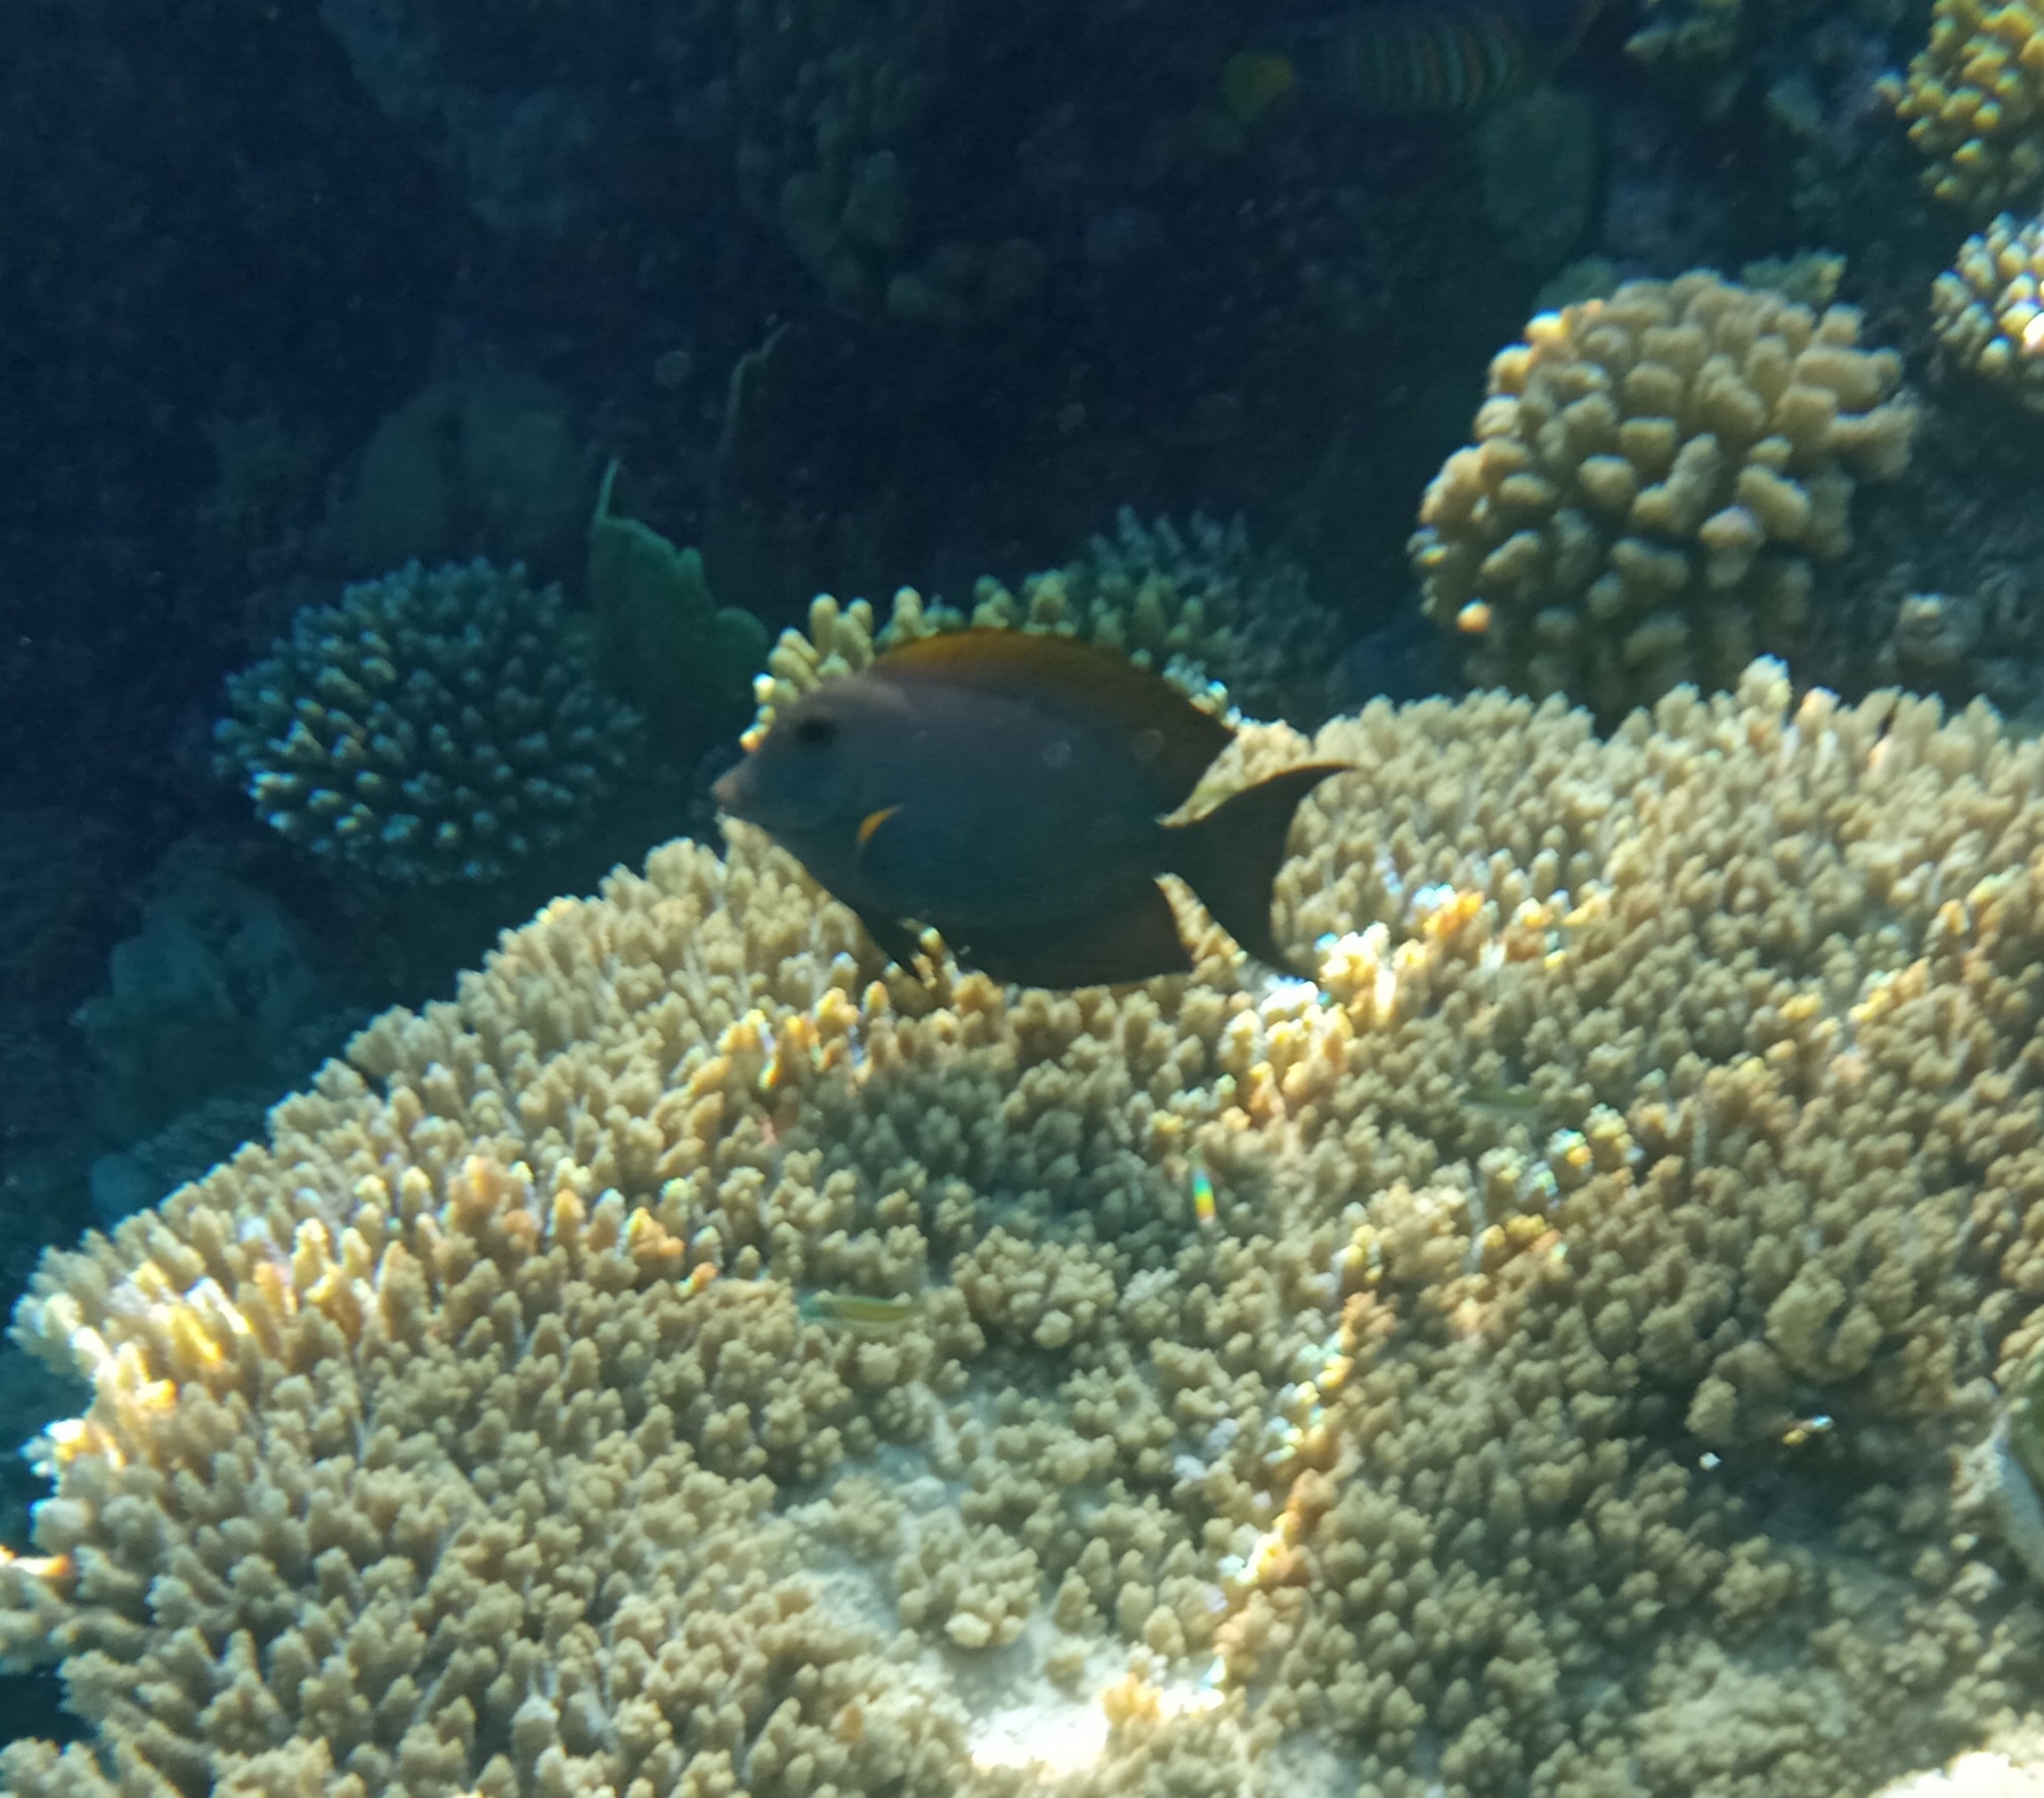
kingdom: Animalia
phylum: Chordata
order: Perciformes
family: Acanthuridae
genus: Ctenochaetus
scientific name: Ctenochaetus striatus
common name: Bristle-toothed surgeonfish
